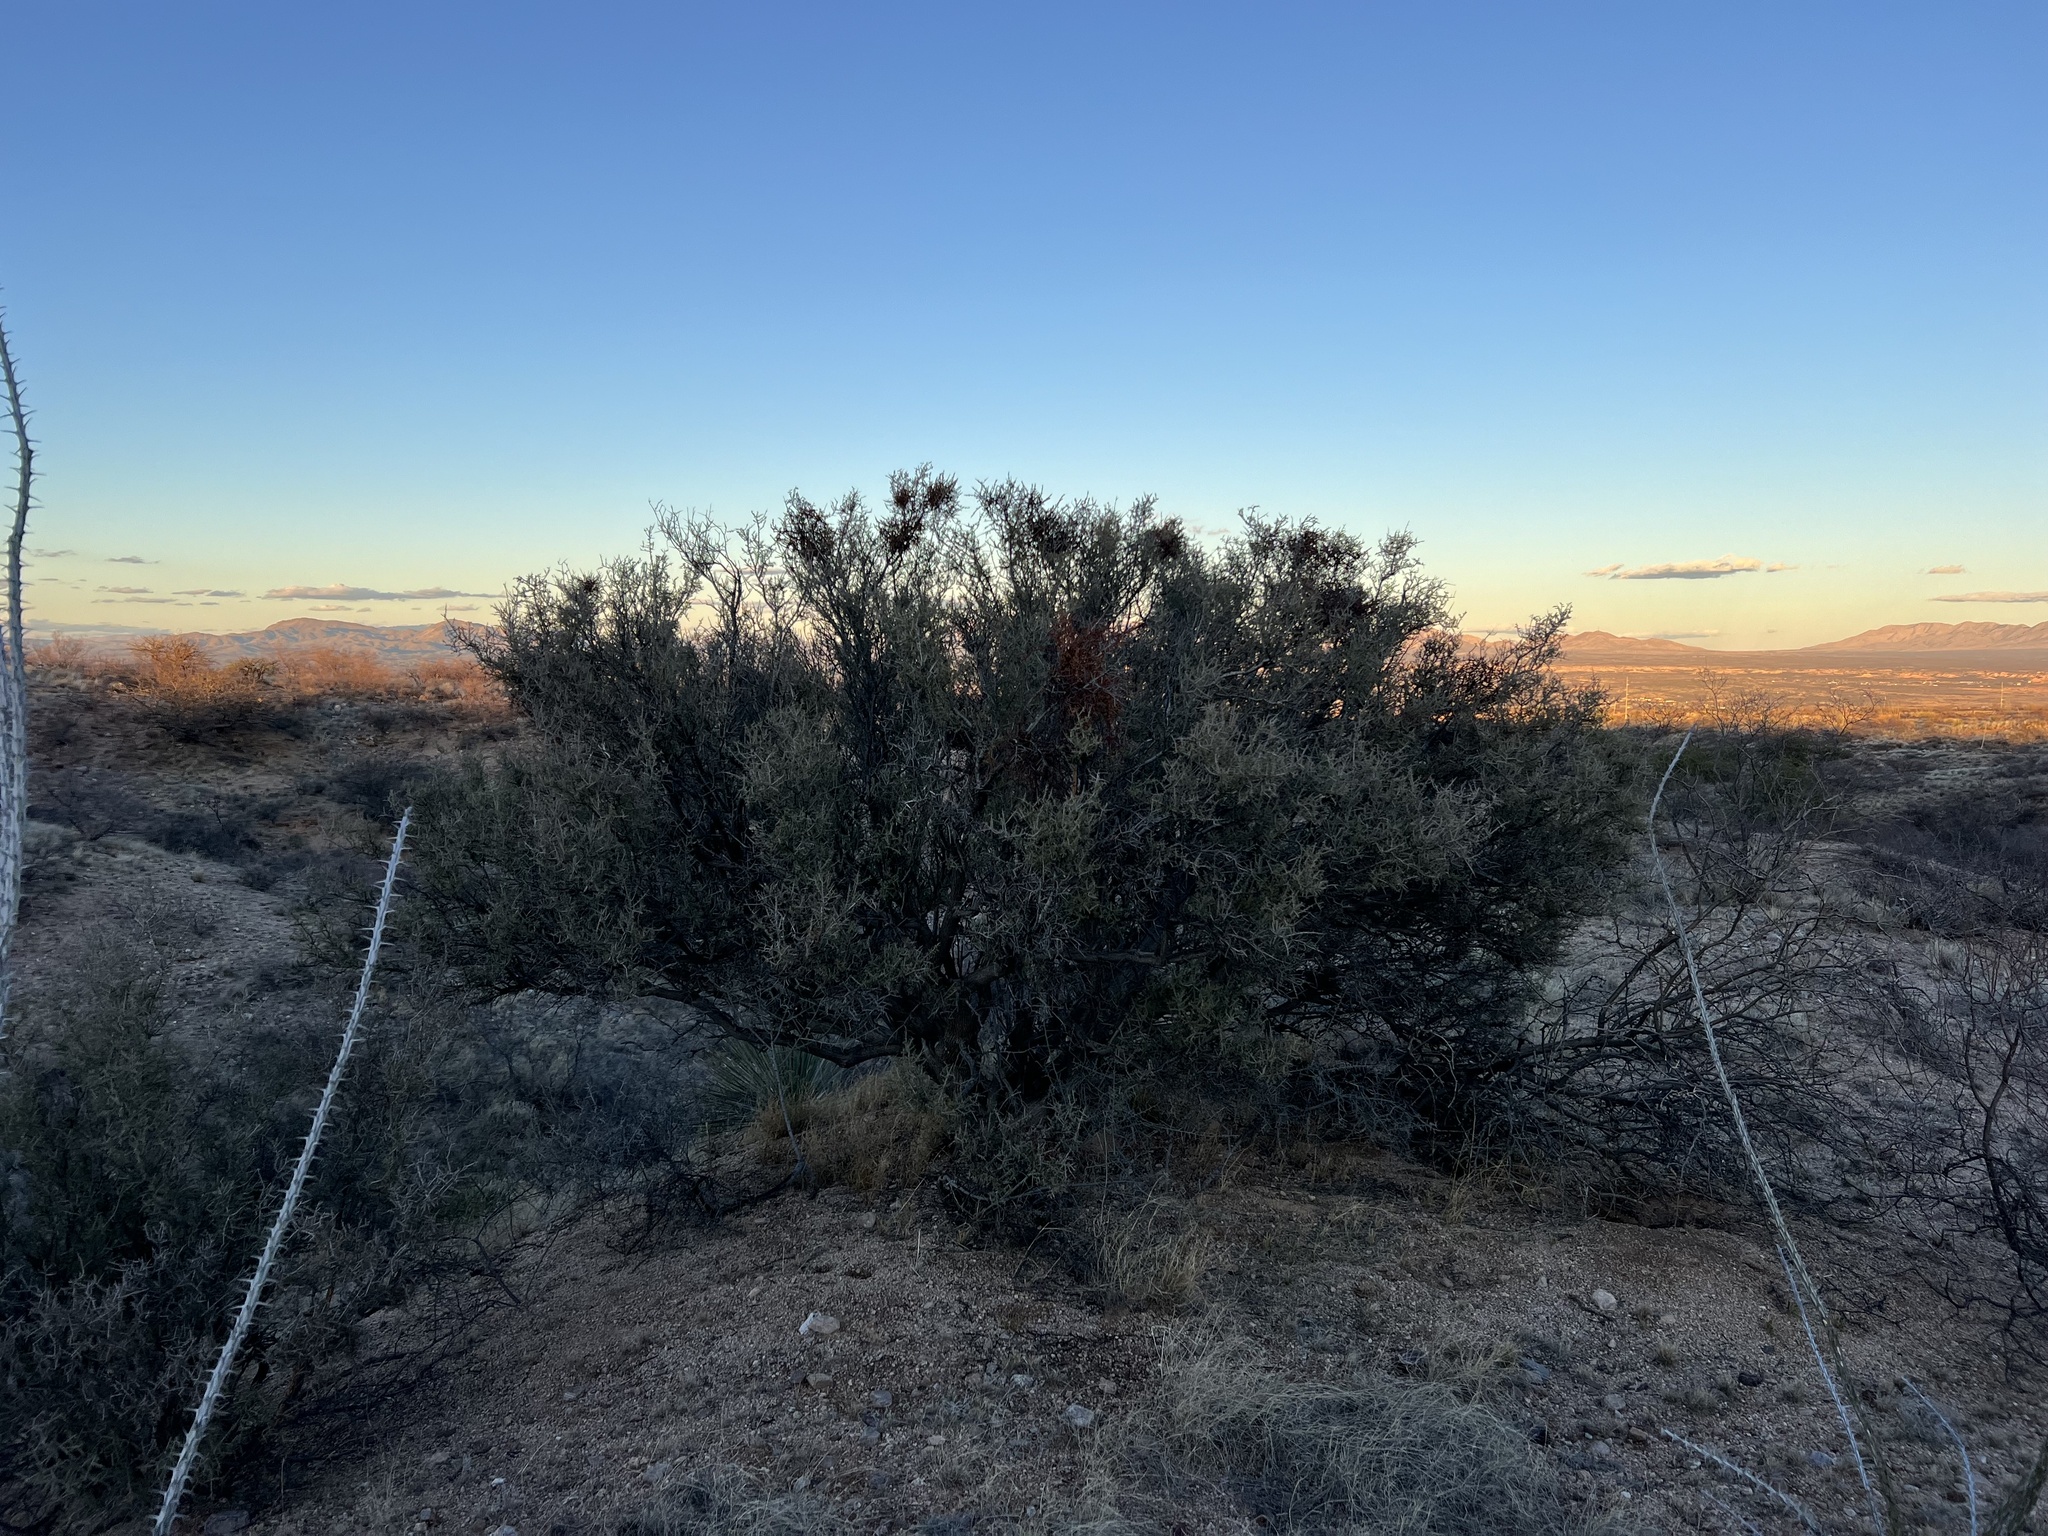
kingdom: Plantae
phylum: Tracheophyta
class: Magnoliopsida
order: Rosales
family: Rhamnaceae
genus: Condalia
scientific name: Condalia warnockii
